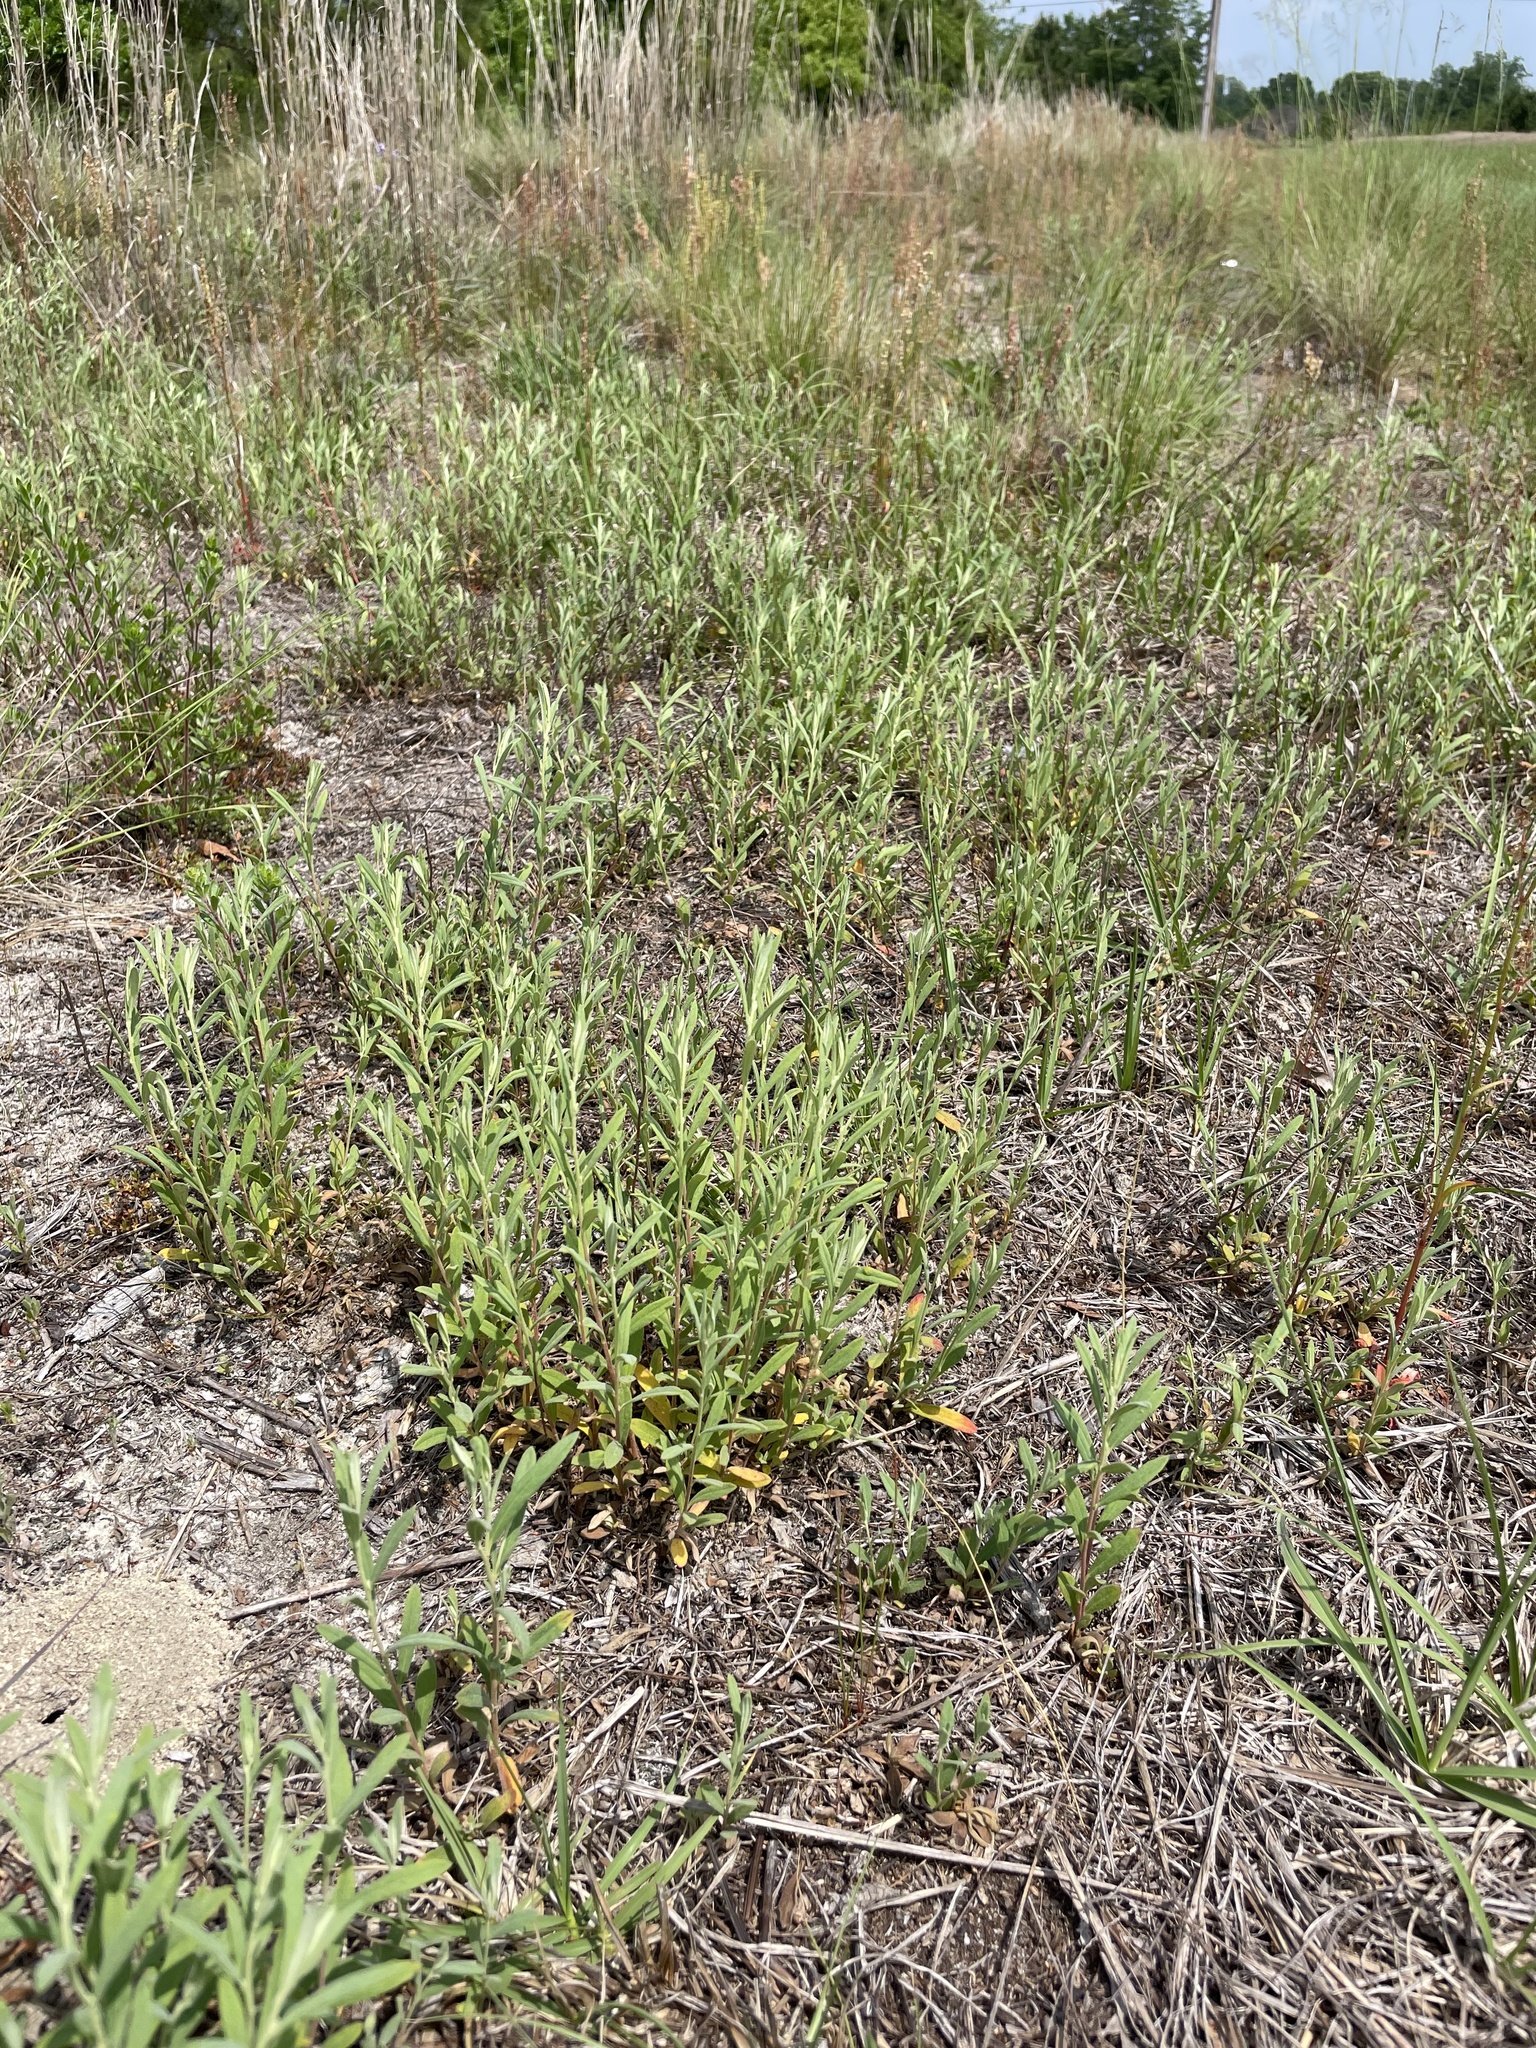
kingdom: Plantae
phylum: Tracheophyta
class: Magnoliopsida
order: Malvales
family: Cistaceae
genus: Crocanthemum
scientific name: Crocanthemum rosmarinifolium
